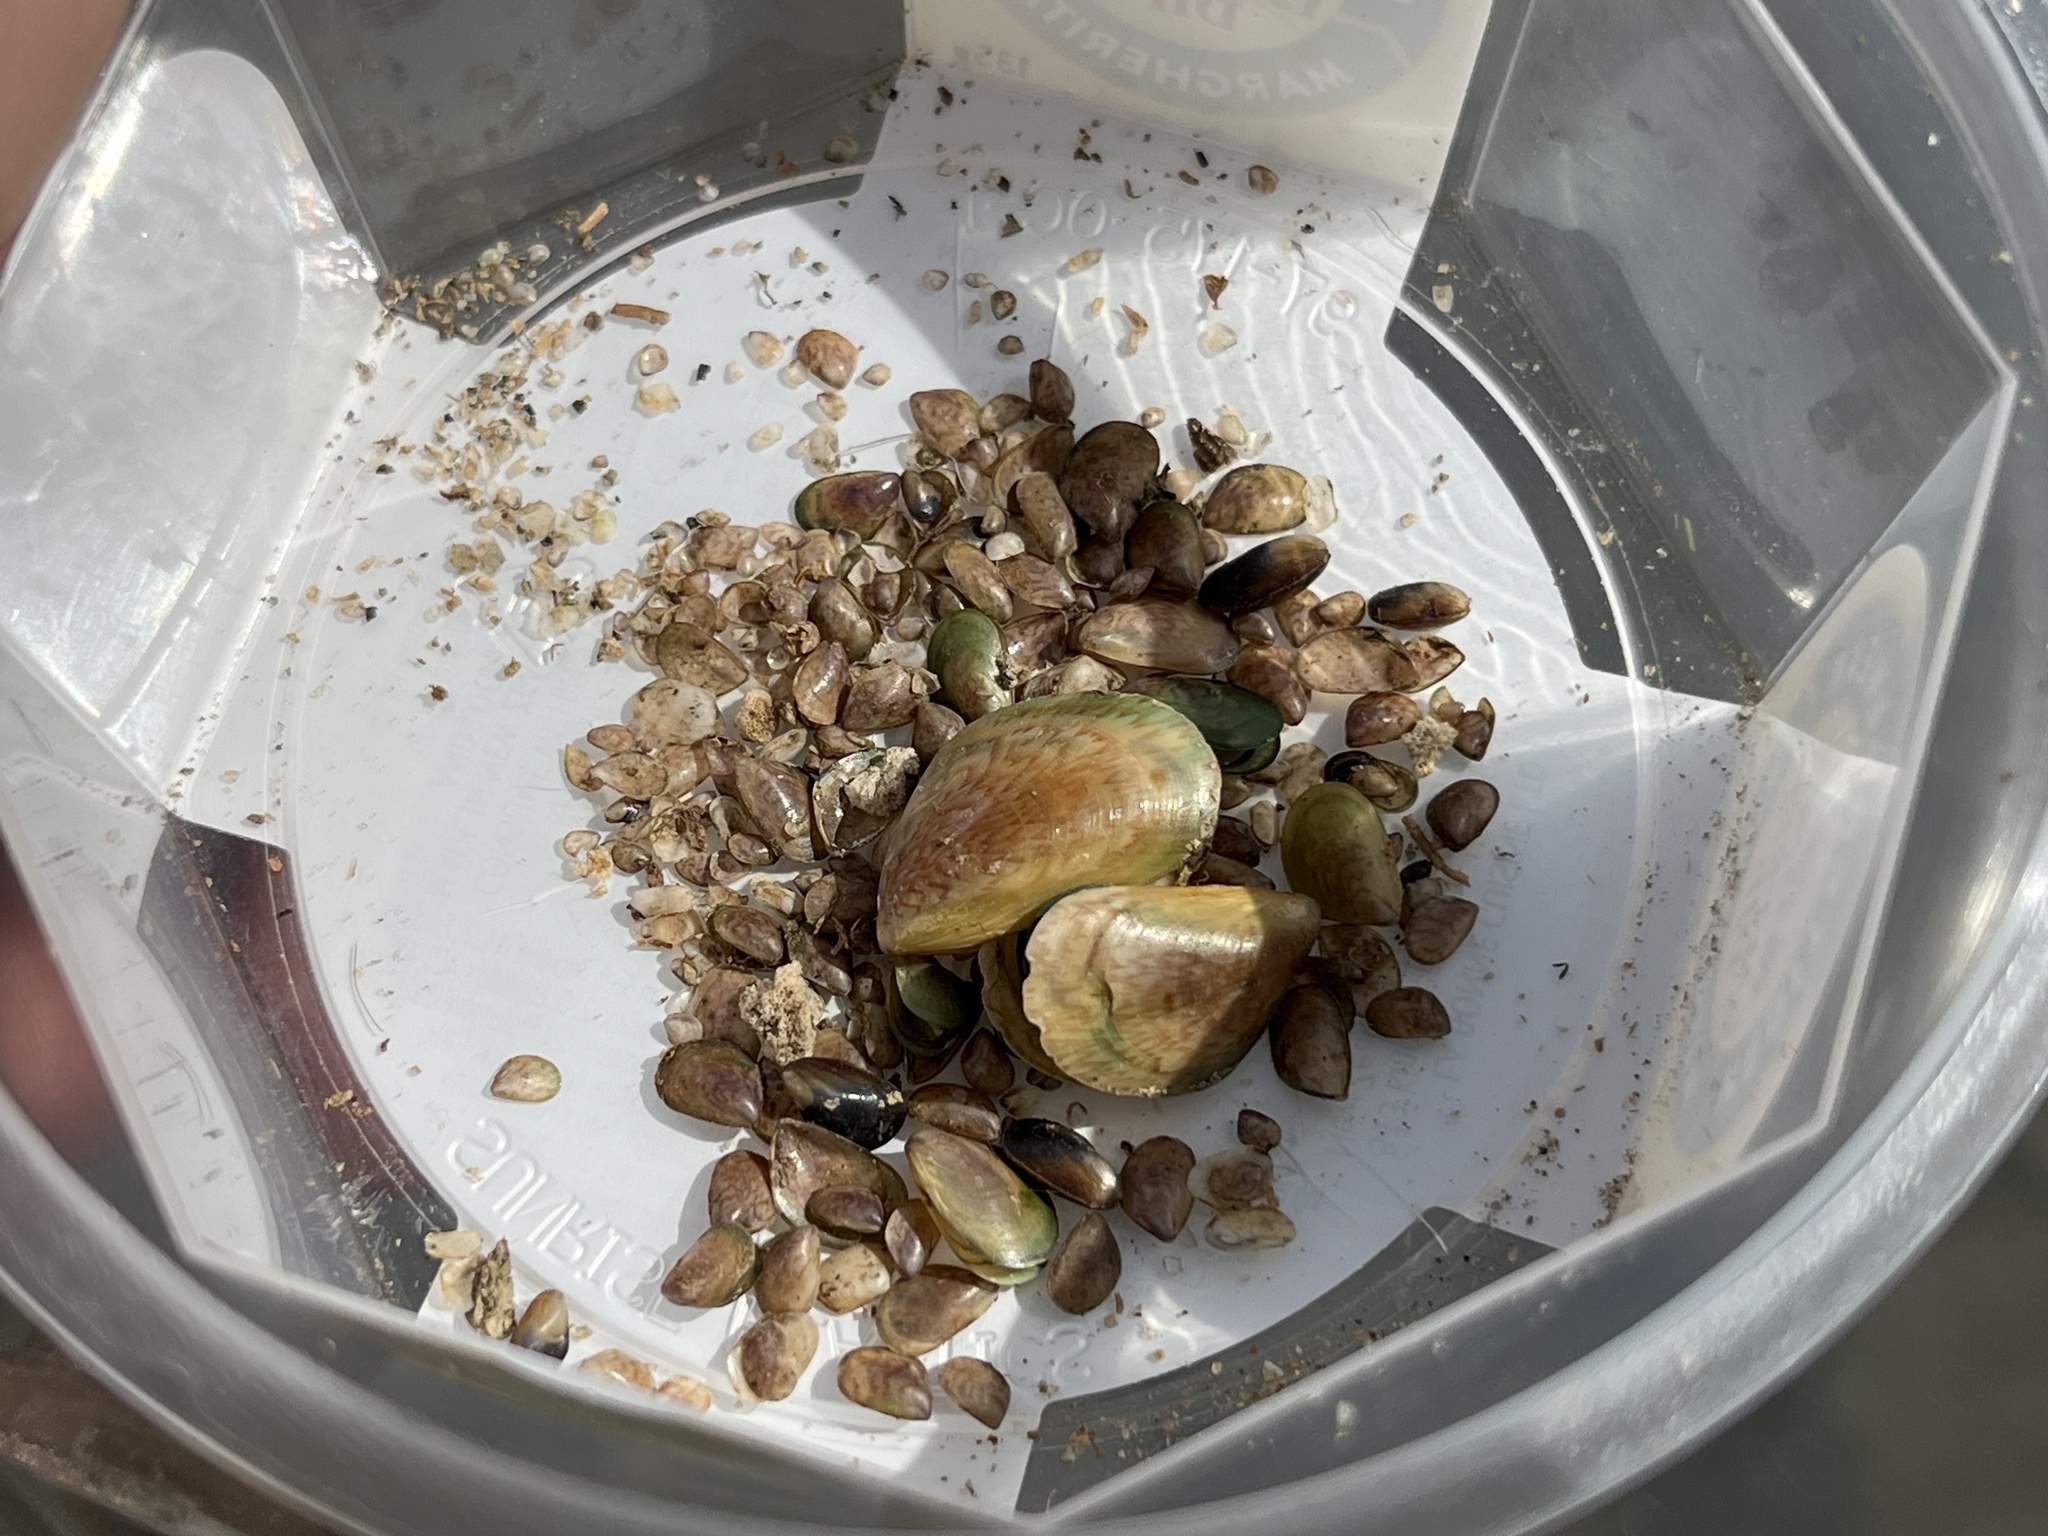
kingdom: Animalia
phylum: Mollusca
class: Bivalvia
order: Mytilida
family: Mytilidae
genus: Perna
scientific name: Perna canaliculus
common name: New zealand greenshelltm
